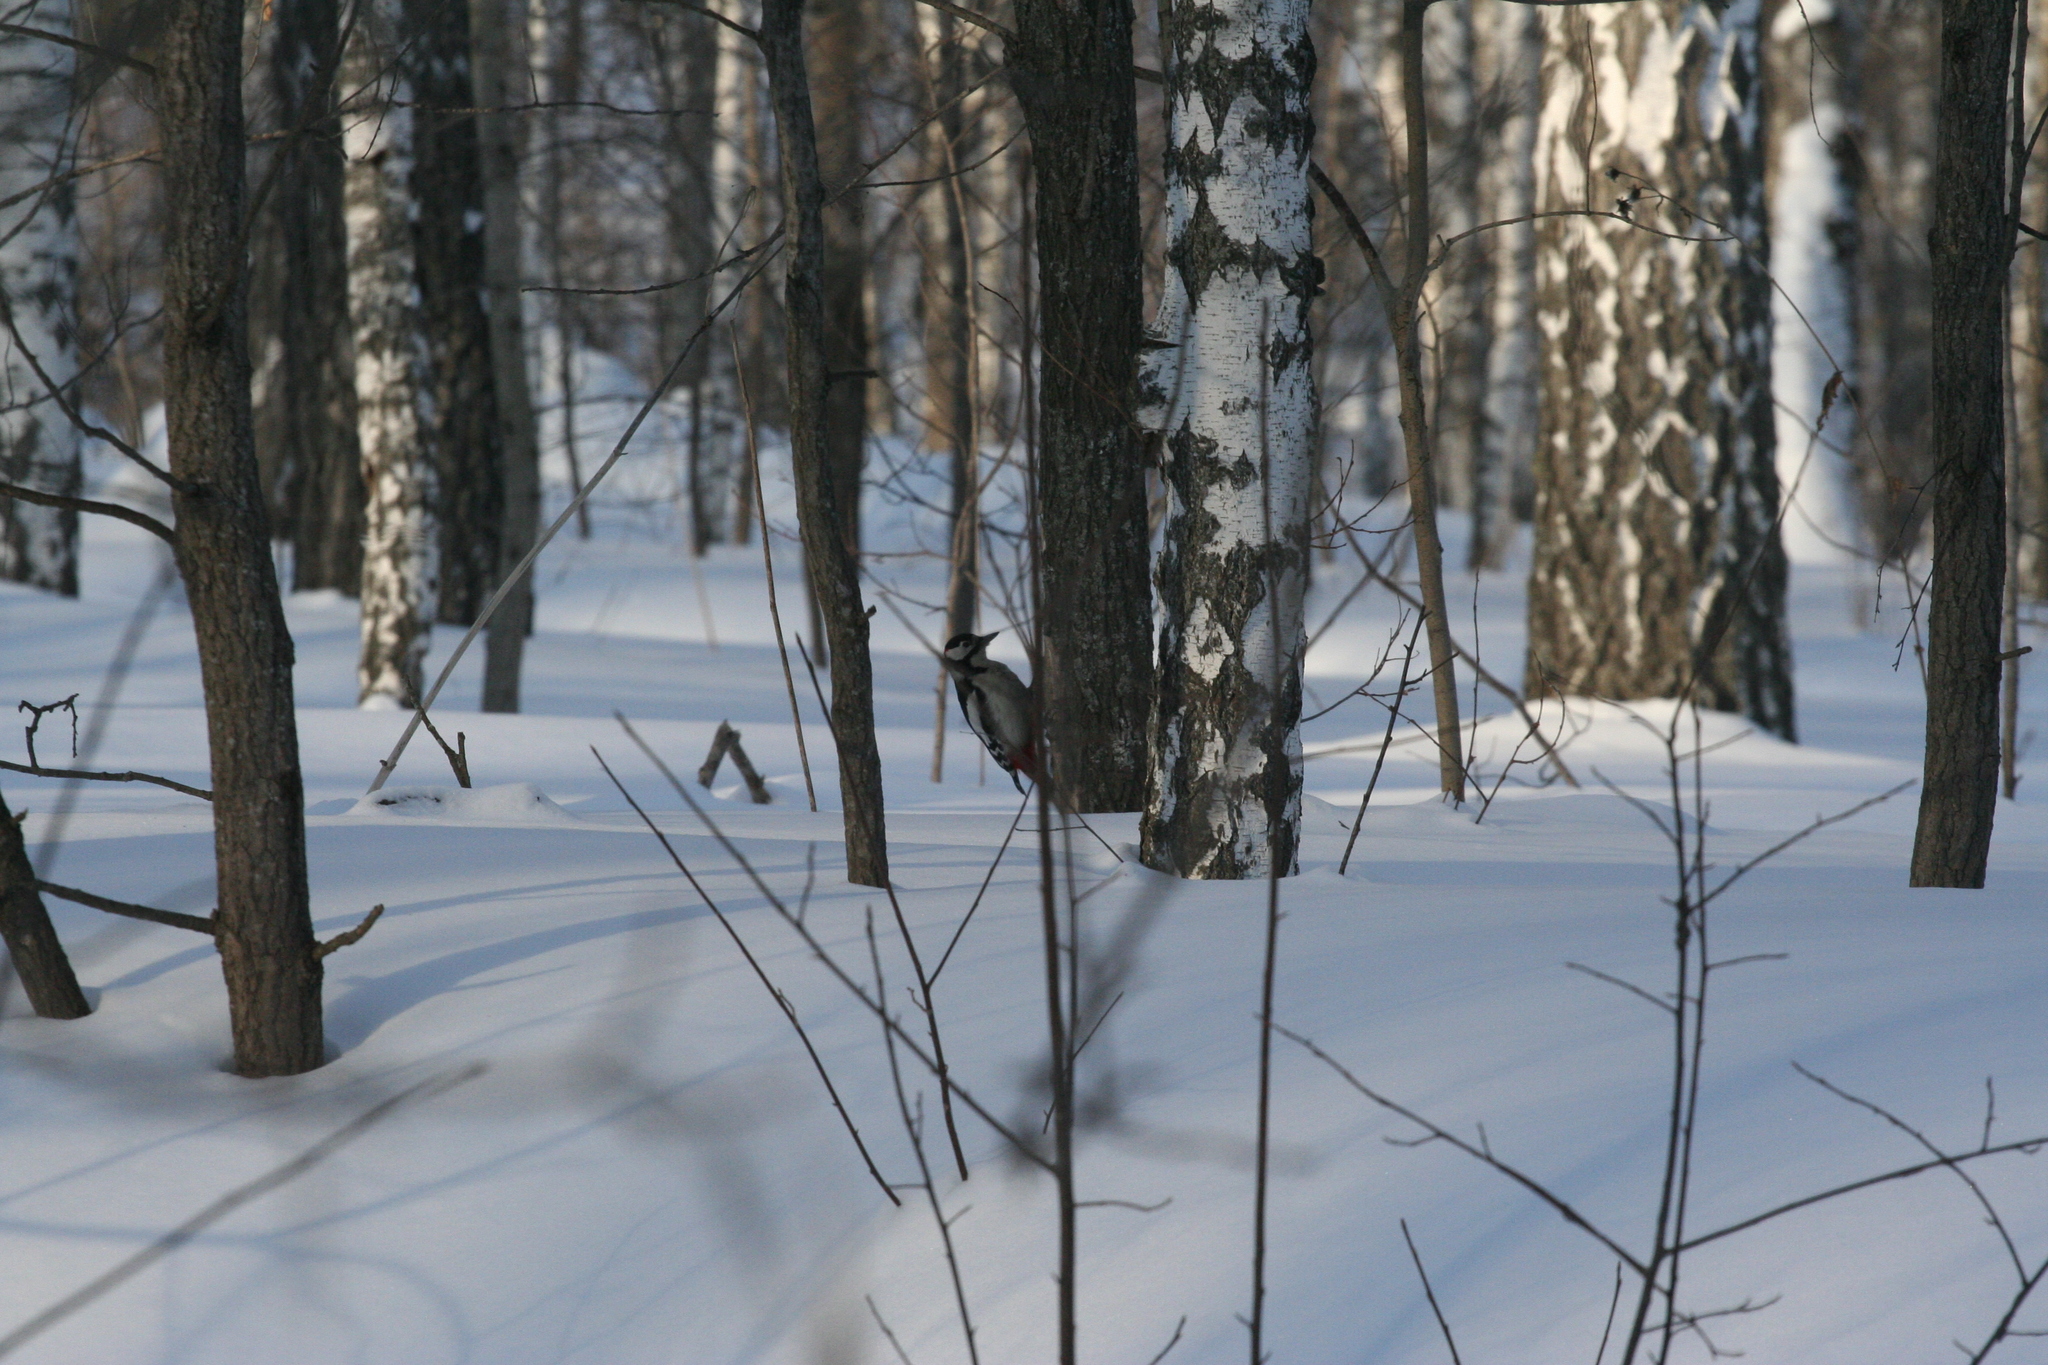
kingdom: Animalia
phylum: Chordata
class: Aves
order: Piciformes
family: Picidae
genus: Dendrocopos
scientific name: Dendrocopos major
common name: Great spotted woodpecker
